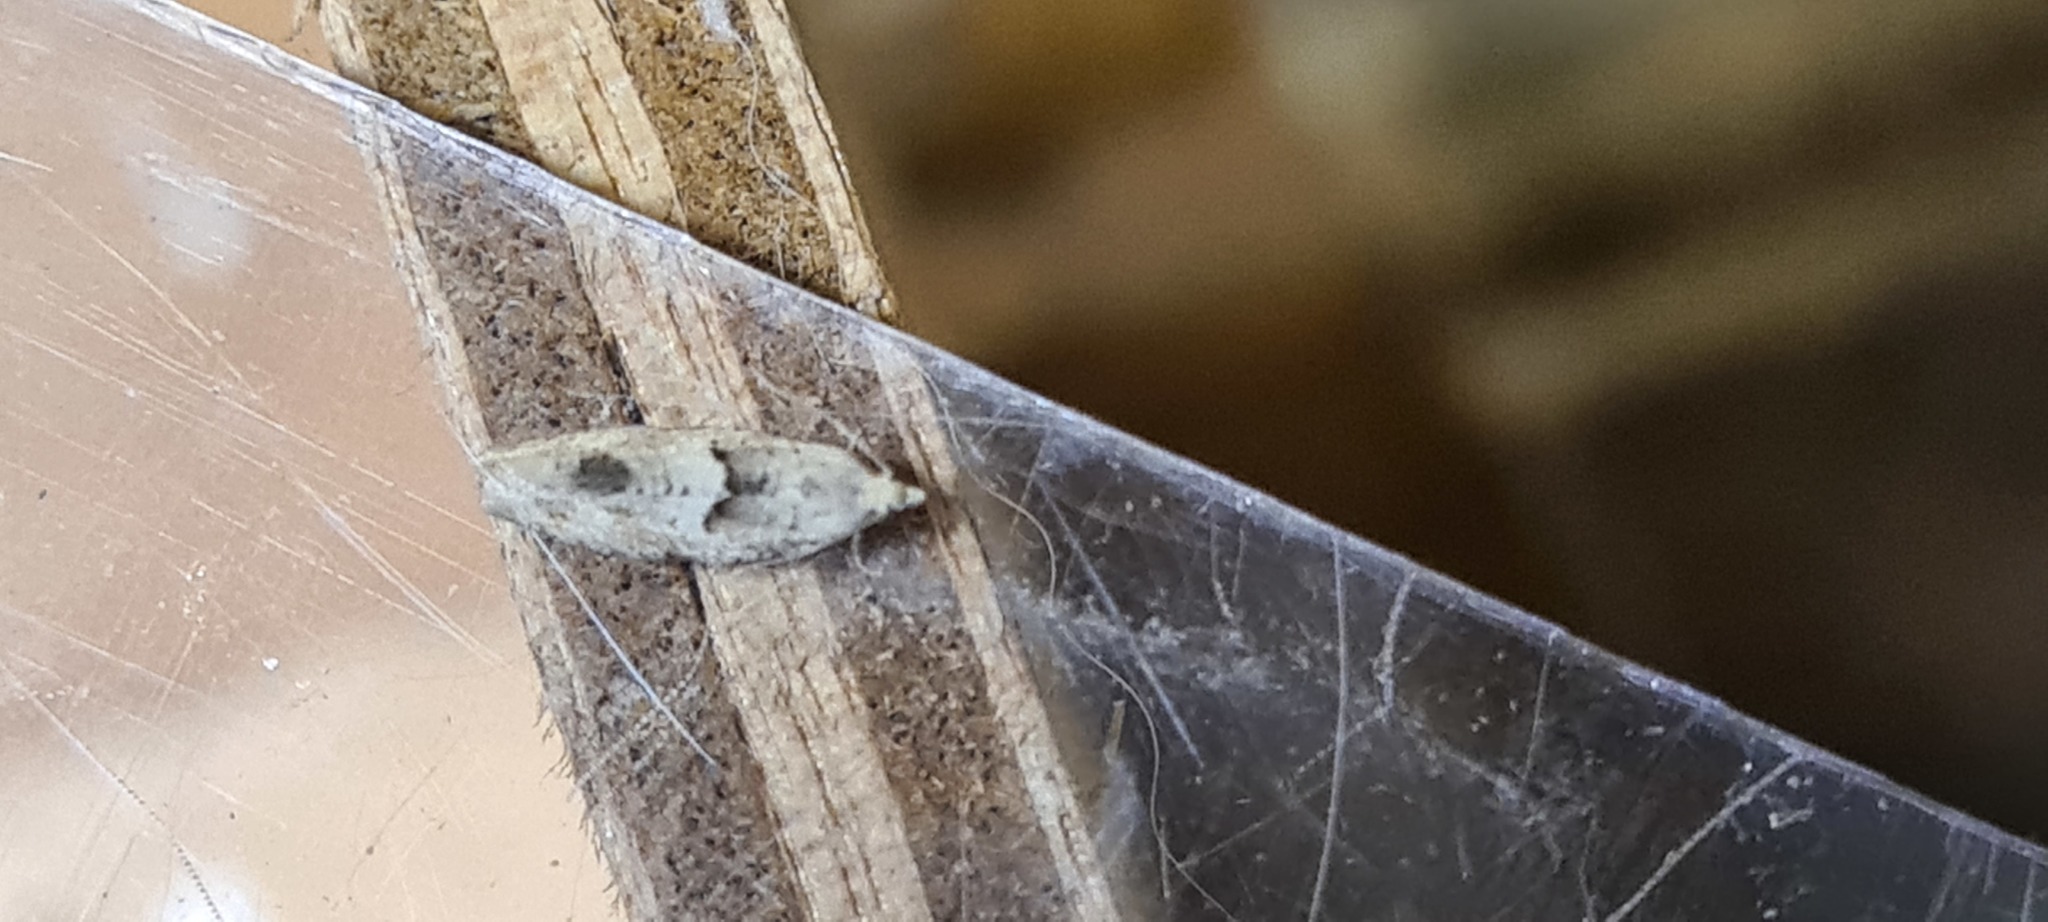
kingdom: Animalia
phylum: Arthropoda
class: Insecta
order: Lepidoptera
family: Tortricidae
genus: Epinotia
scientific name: Epinotia bilunana
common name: Crescent bell
